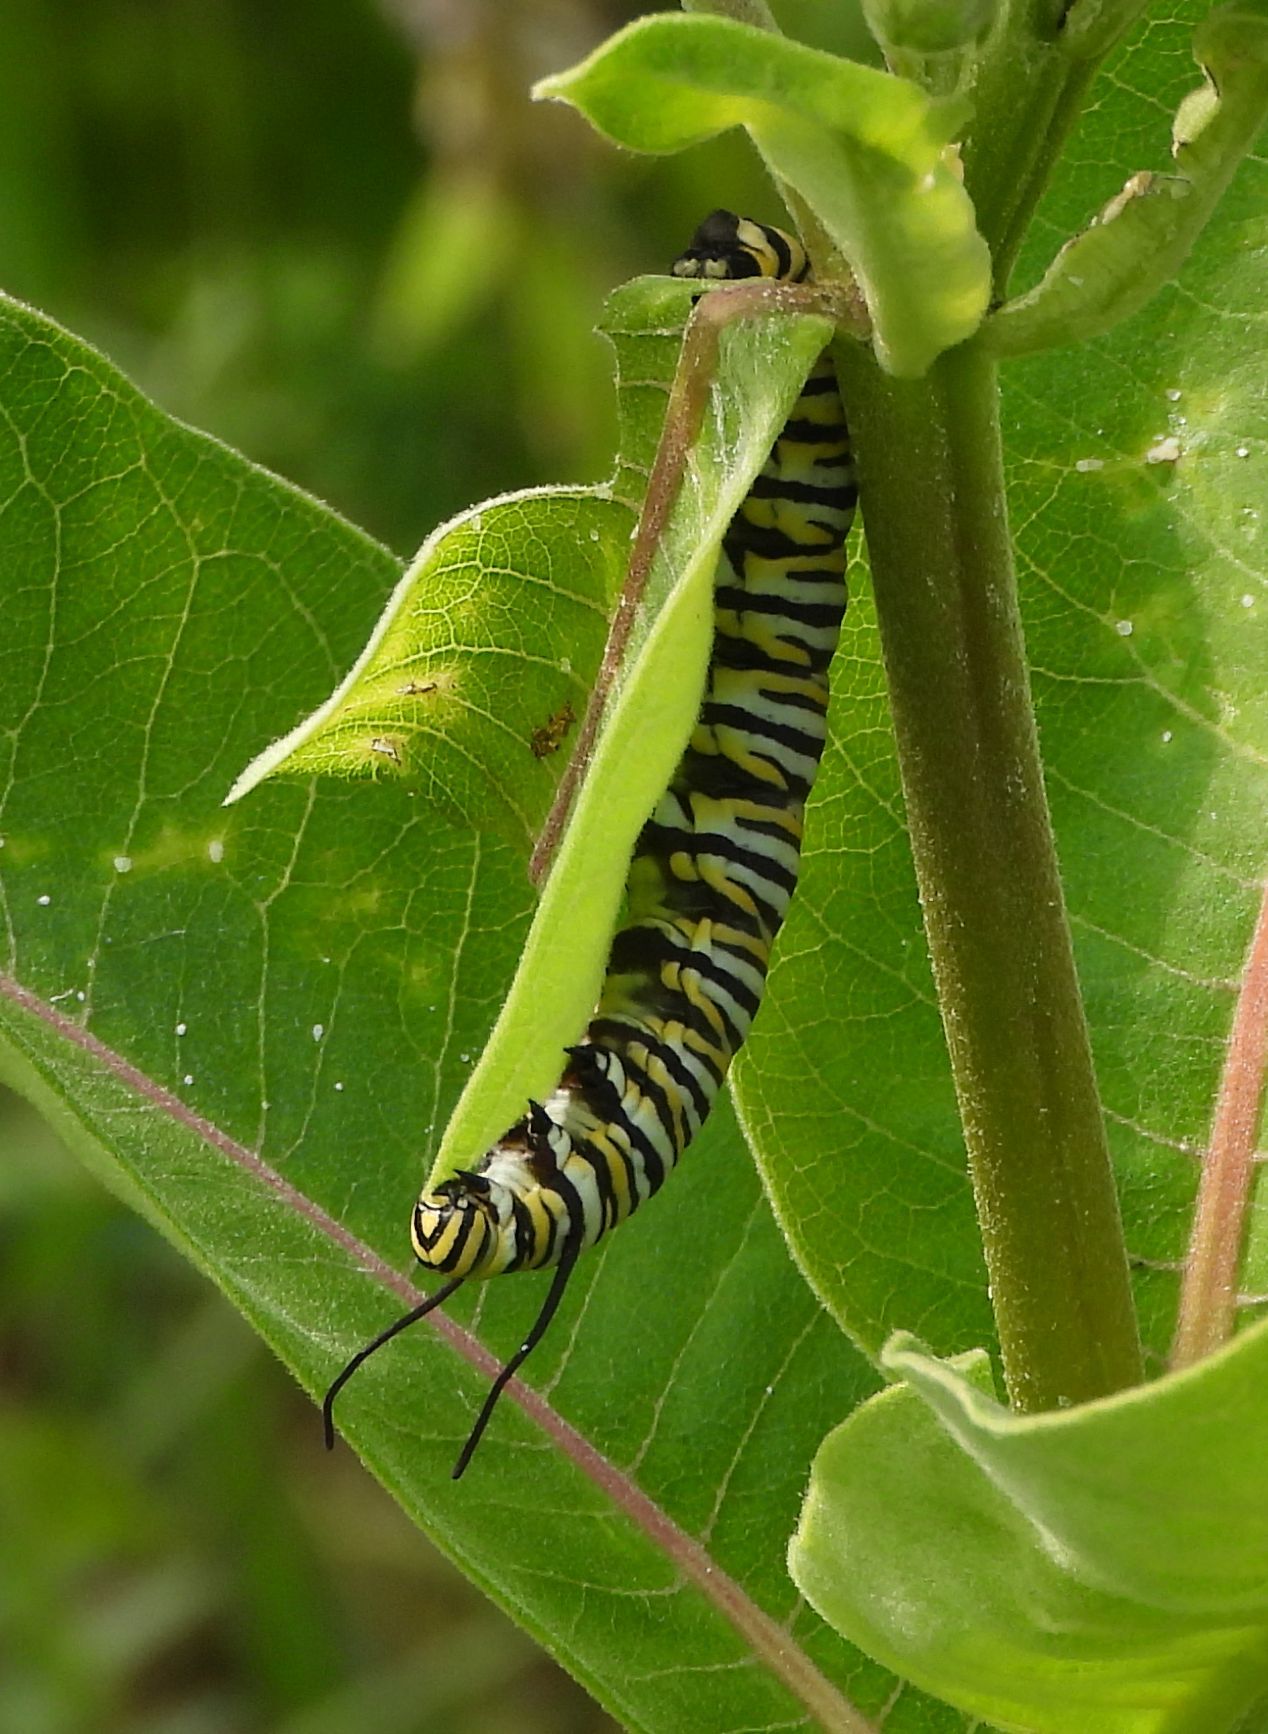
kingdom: Animalia
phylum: Arthropoda
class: Insecta
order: Lepidoptera
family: Nymphalidae
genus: Danaus
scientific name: Danaus plexippus
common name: Monarch
